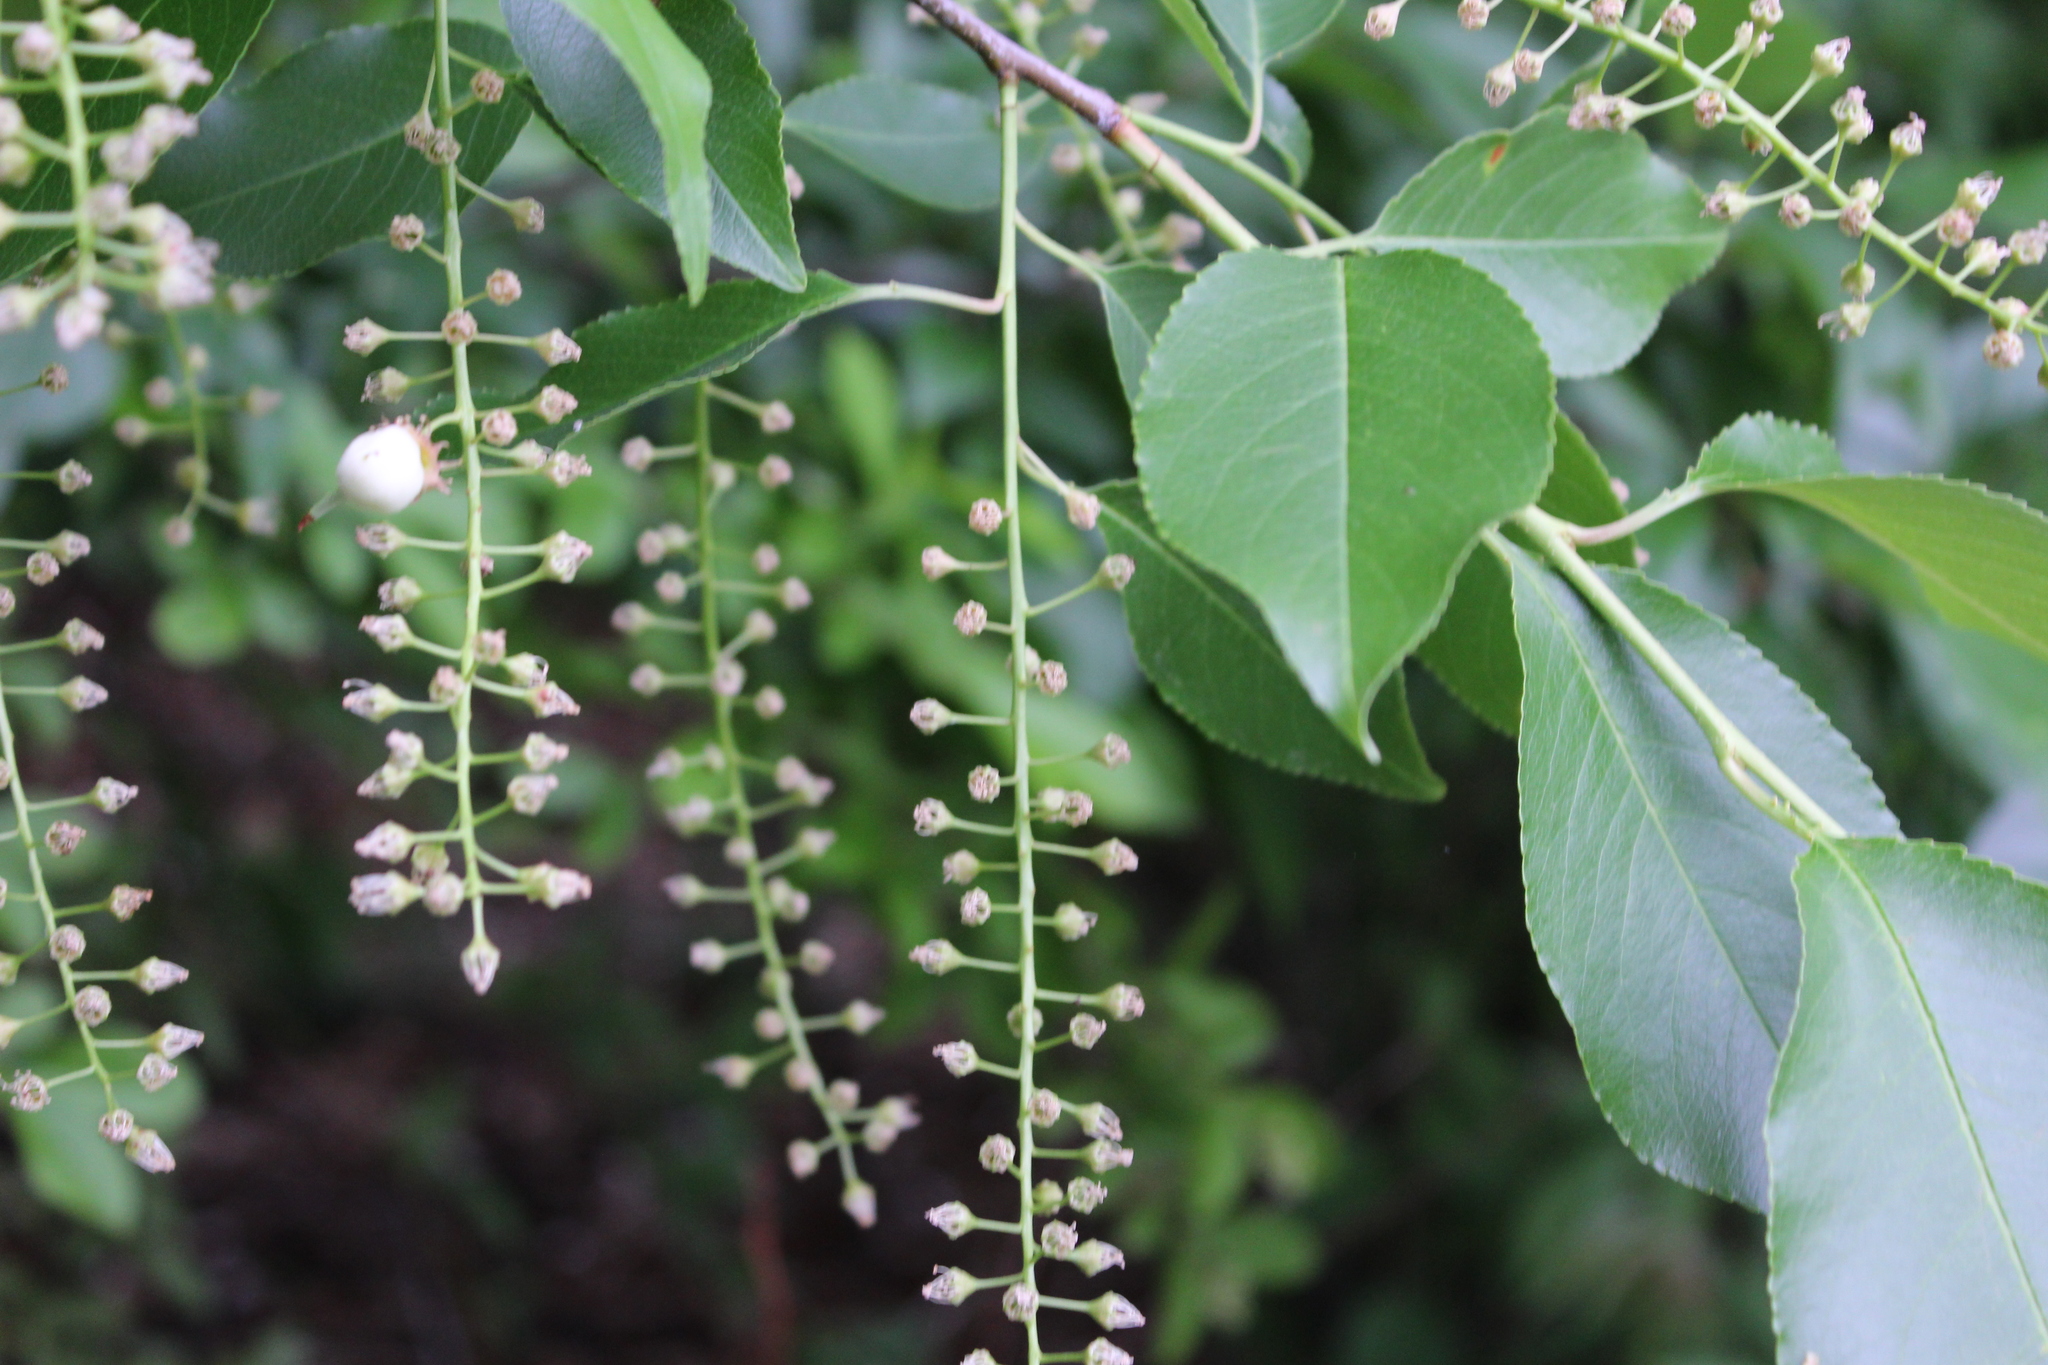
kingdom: Plantae
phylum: Tracheophyta
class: Magnoliopsida
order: Rosales
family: Rosaceae
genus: Prunus
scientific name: Prunus serotina
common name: Black cherry
